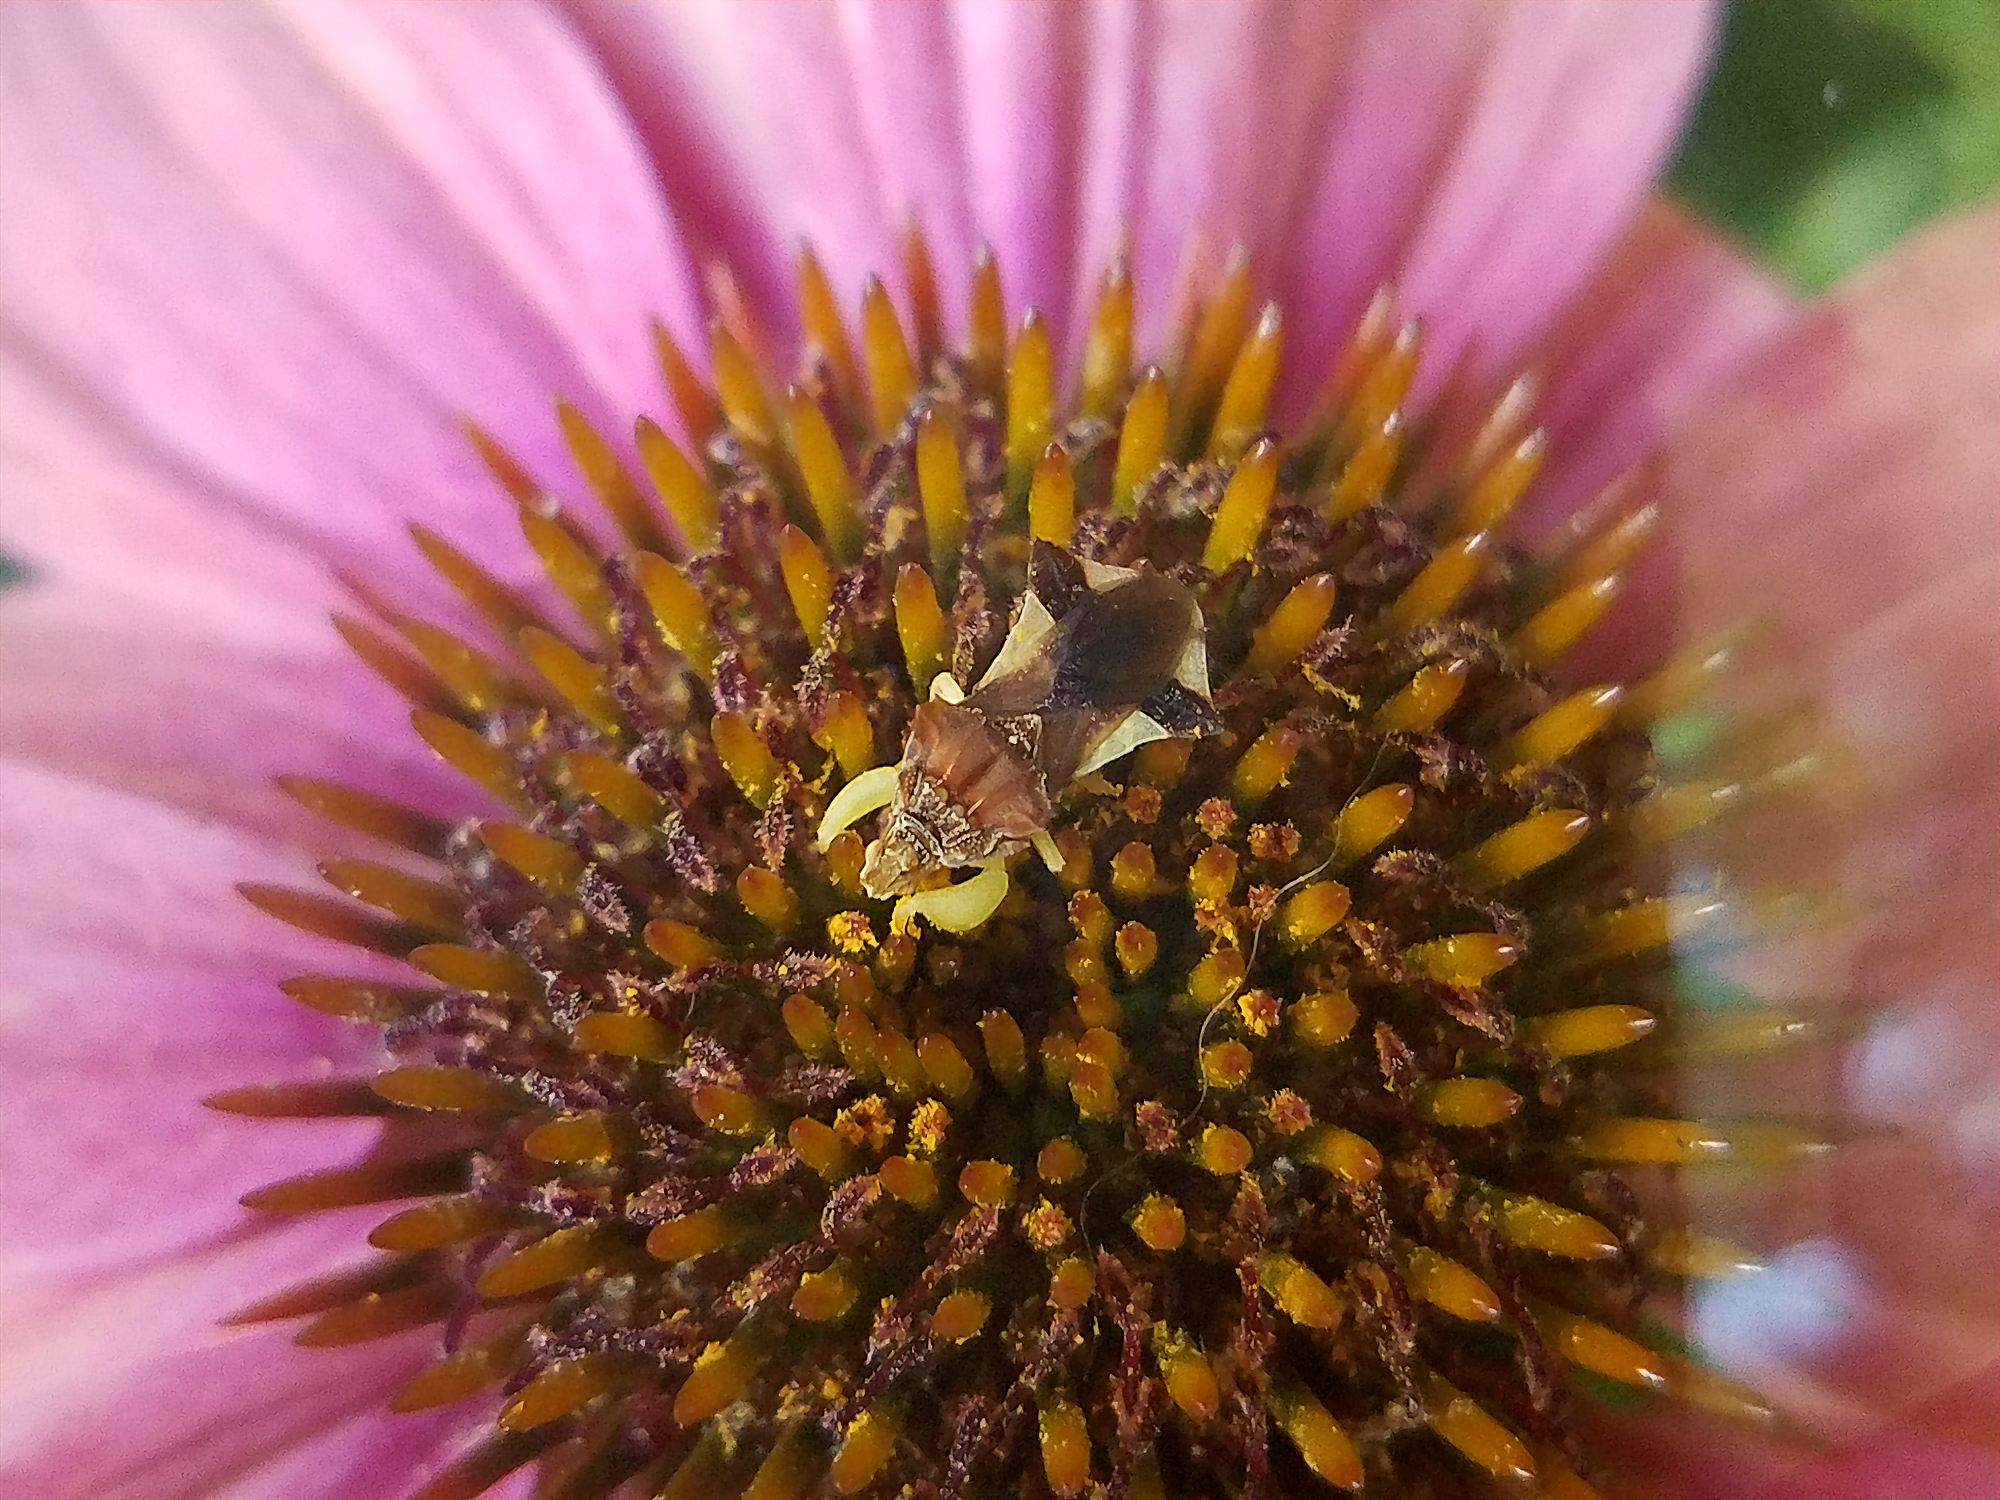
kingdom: Animalia
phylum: Arthropoda
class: Insecta
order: Hemiptera
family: Reduviidae
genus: Phymata
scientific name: Phymata pennsylvanica
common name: Pennsylvania ambush bug
